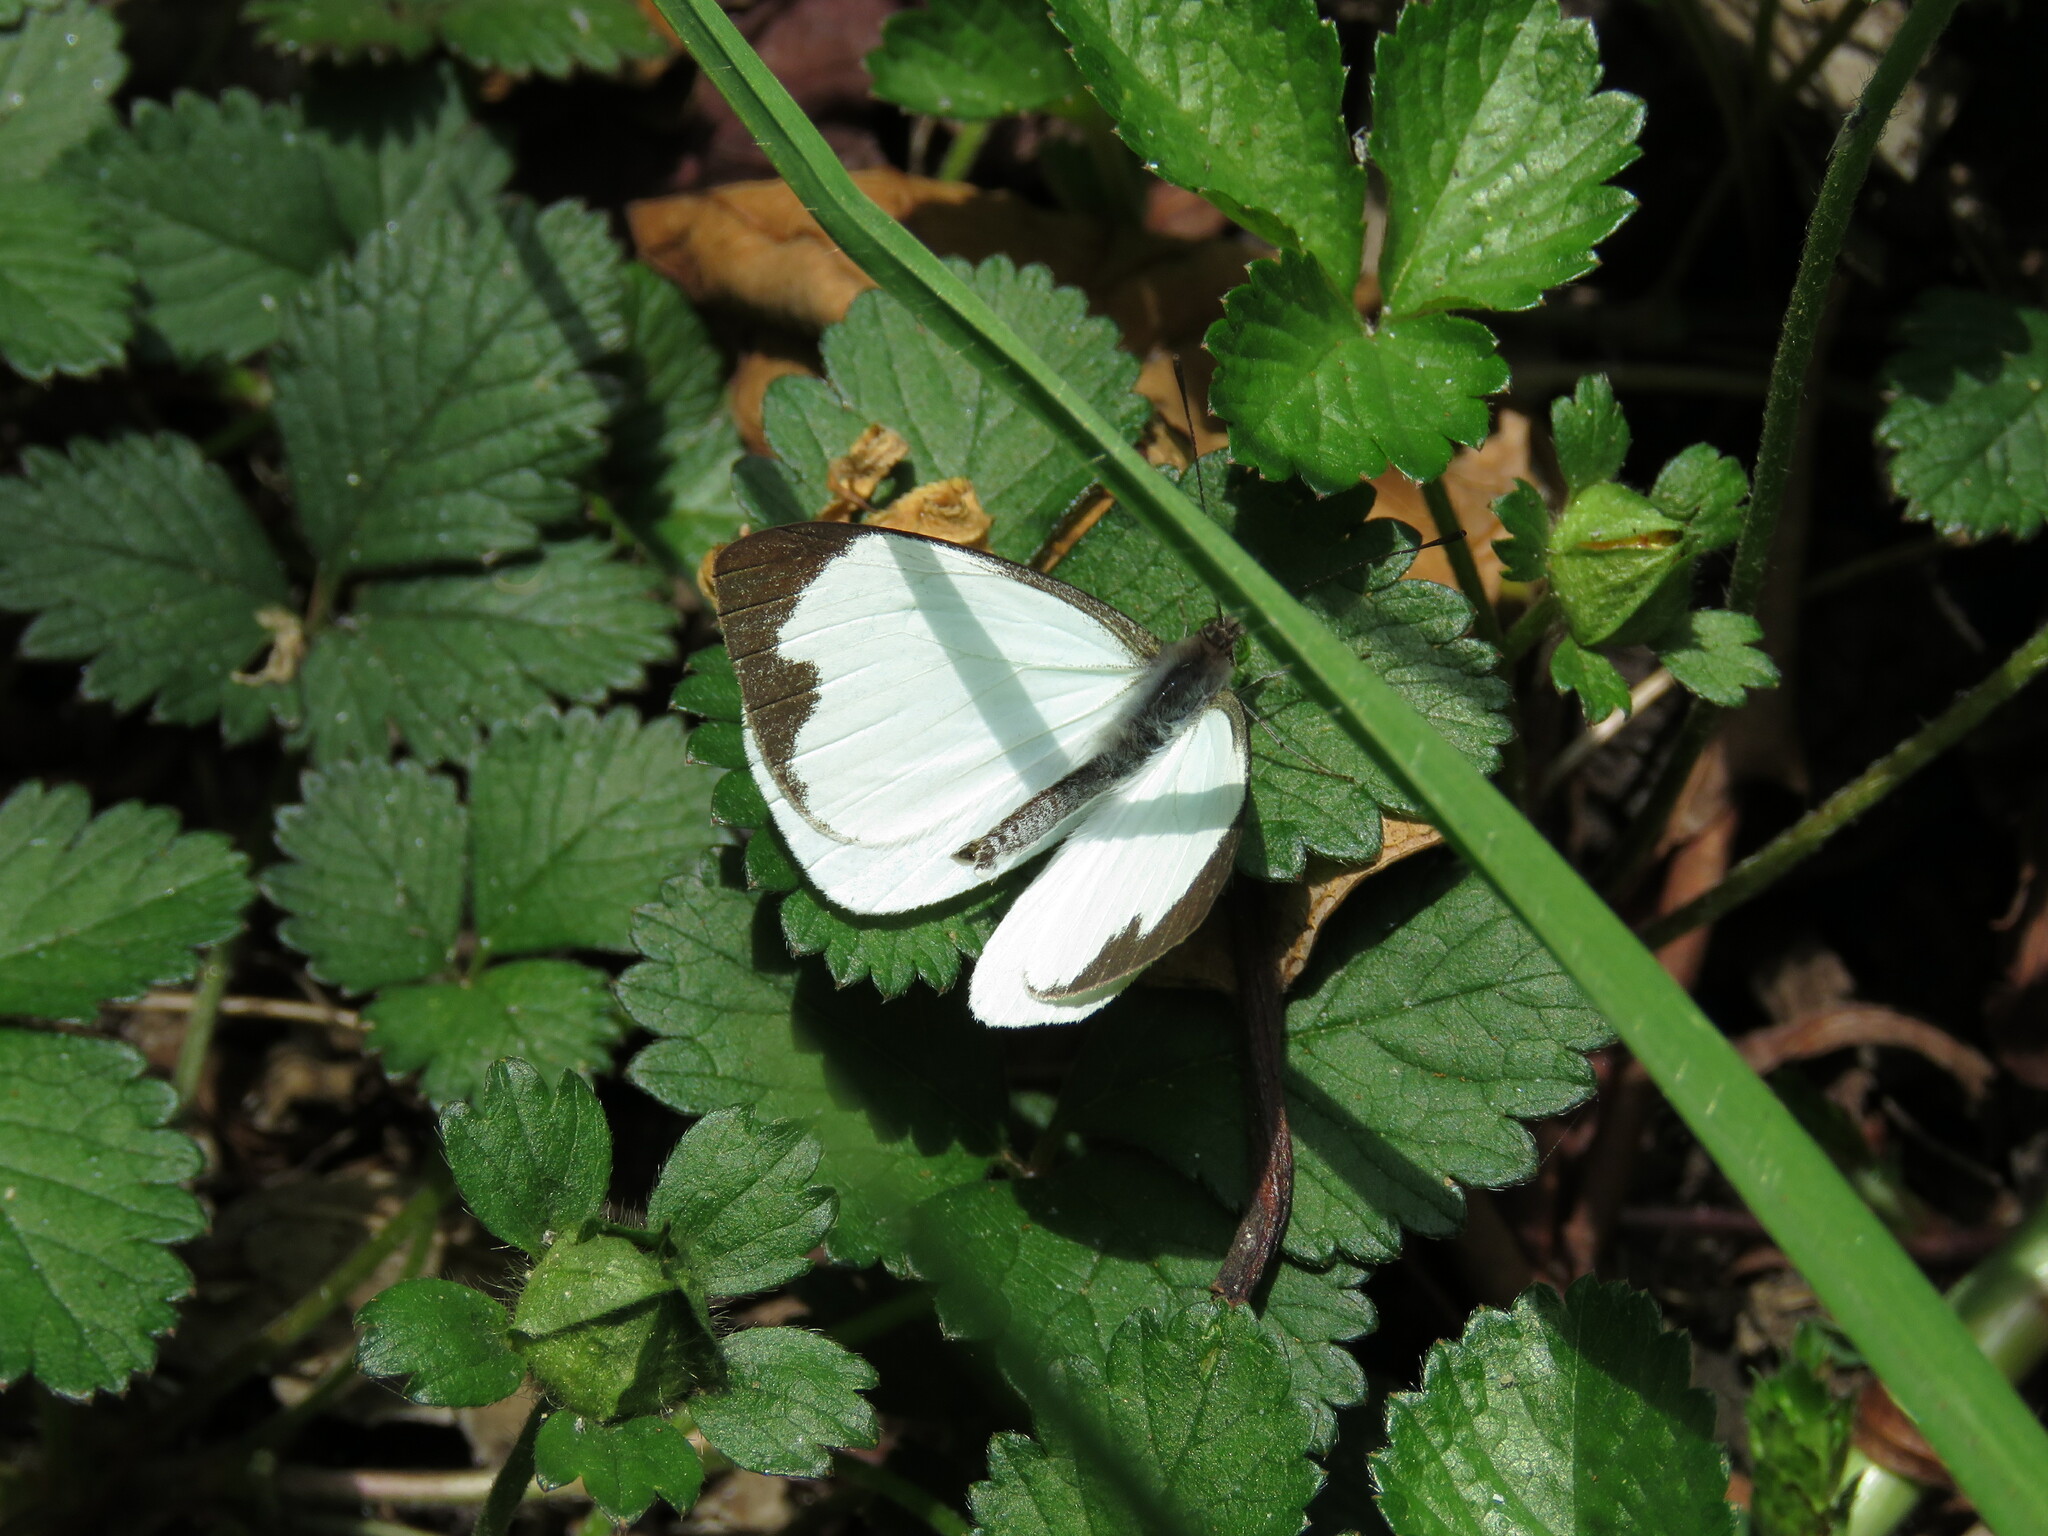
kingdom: Animalia
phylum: Arthropoda
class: Insecta
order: Lepidoptera
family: Pieridae
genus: Leptophobia
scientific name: Leptophobia aripa
